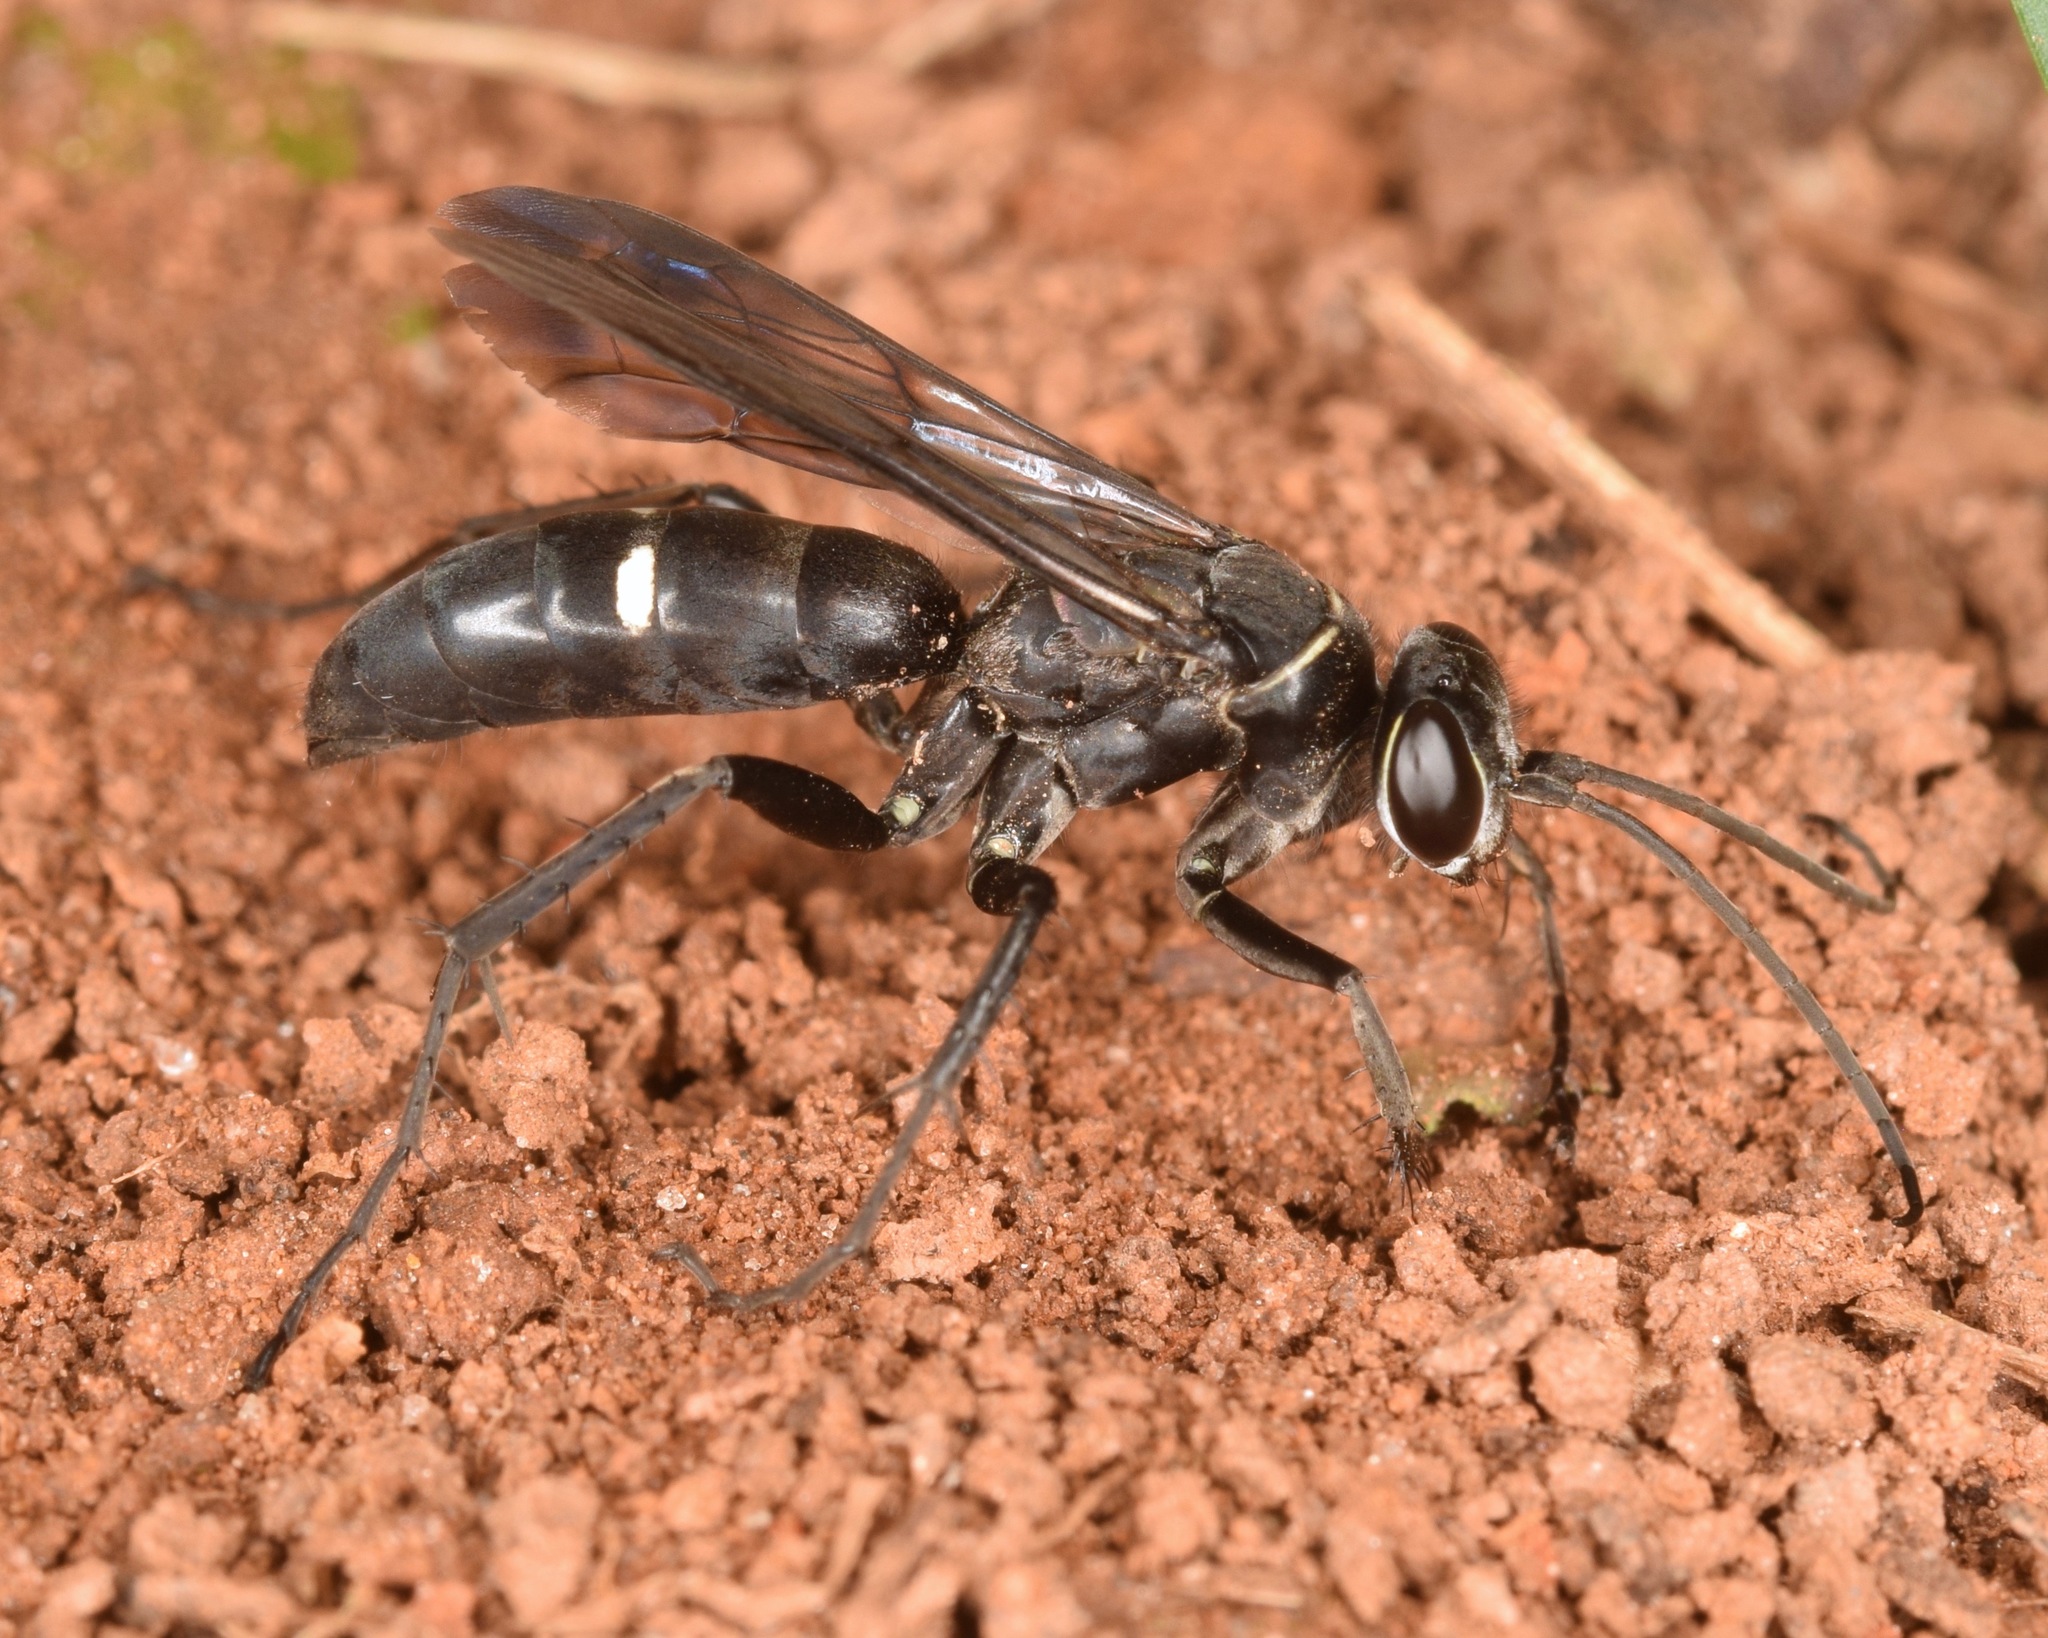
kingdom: Animalia
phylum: Arthropoda
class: Insecta
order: Hymenoptera
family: Pompilidae
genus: Episyron
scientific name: Episyron biguttatus
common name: Two-spotted spider wasp
